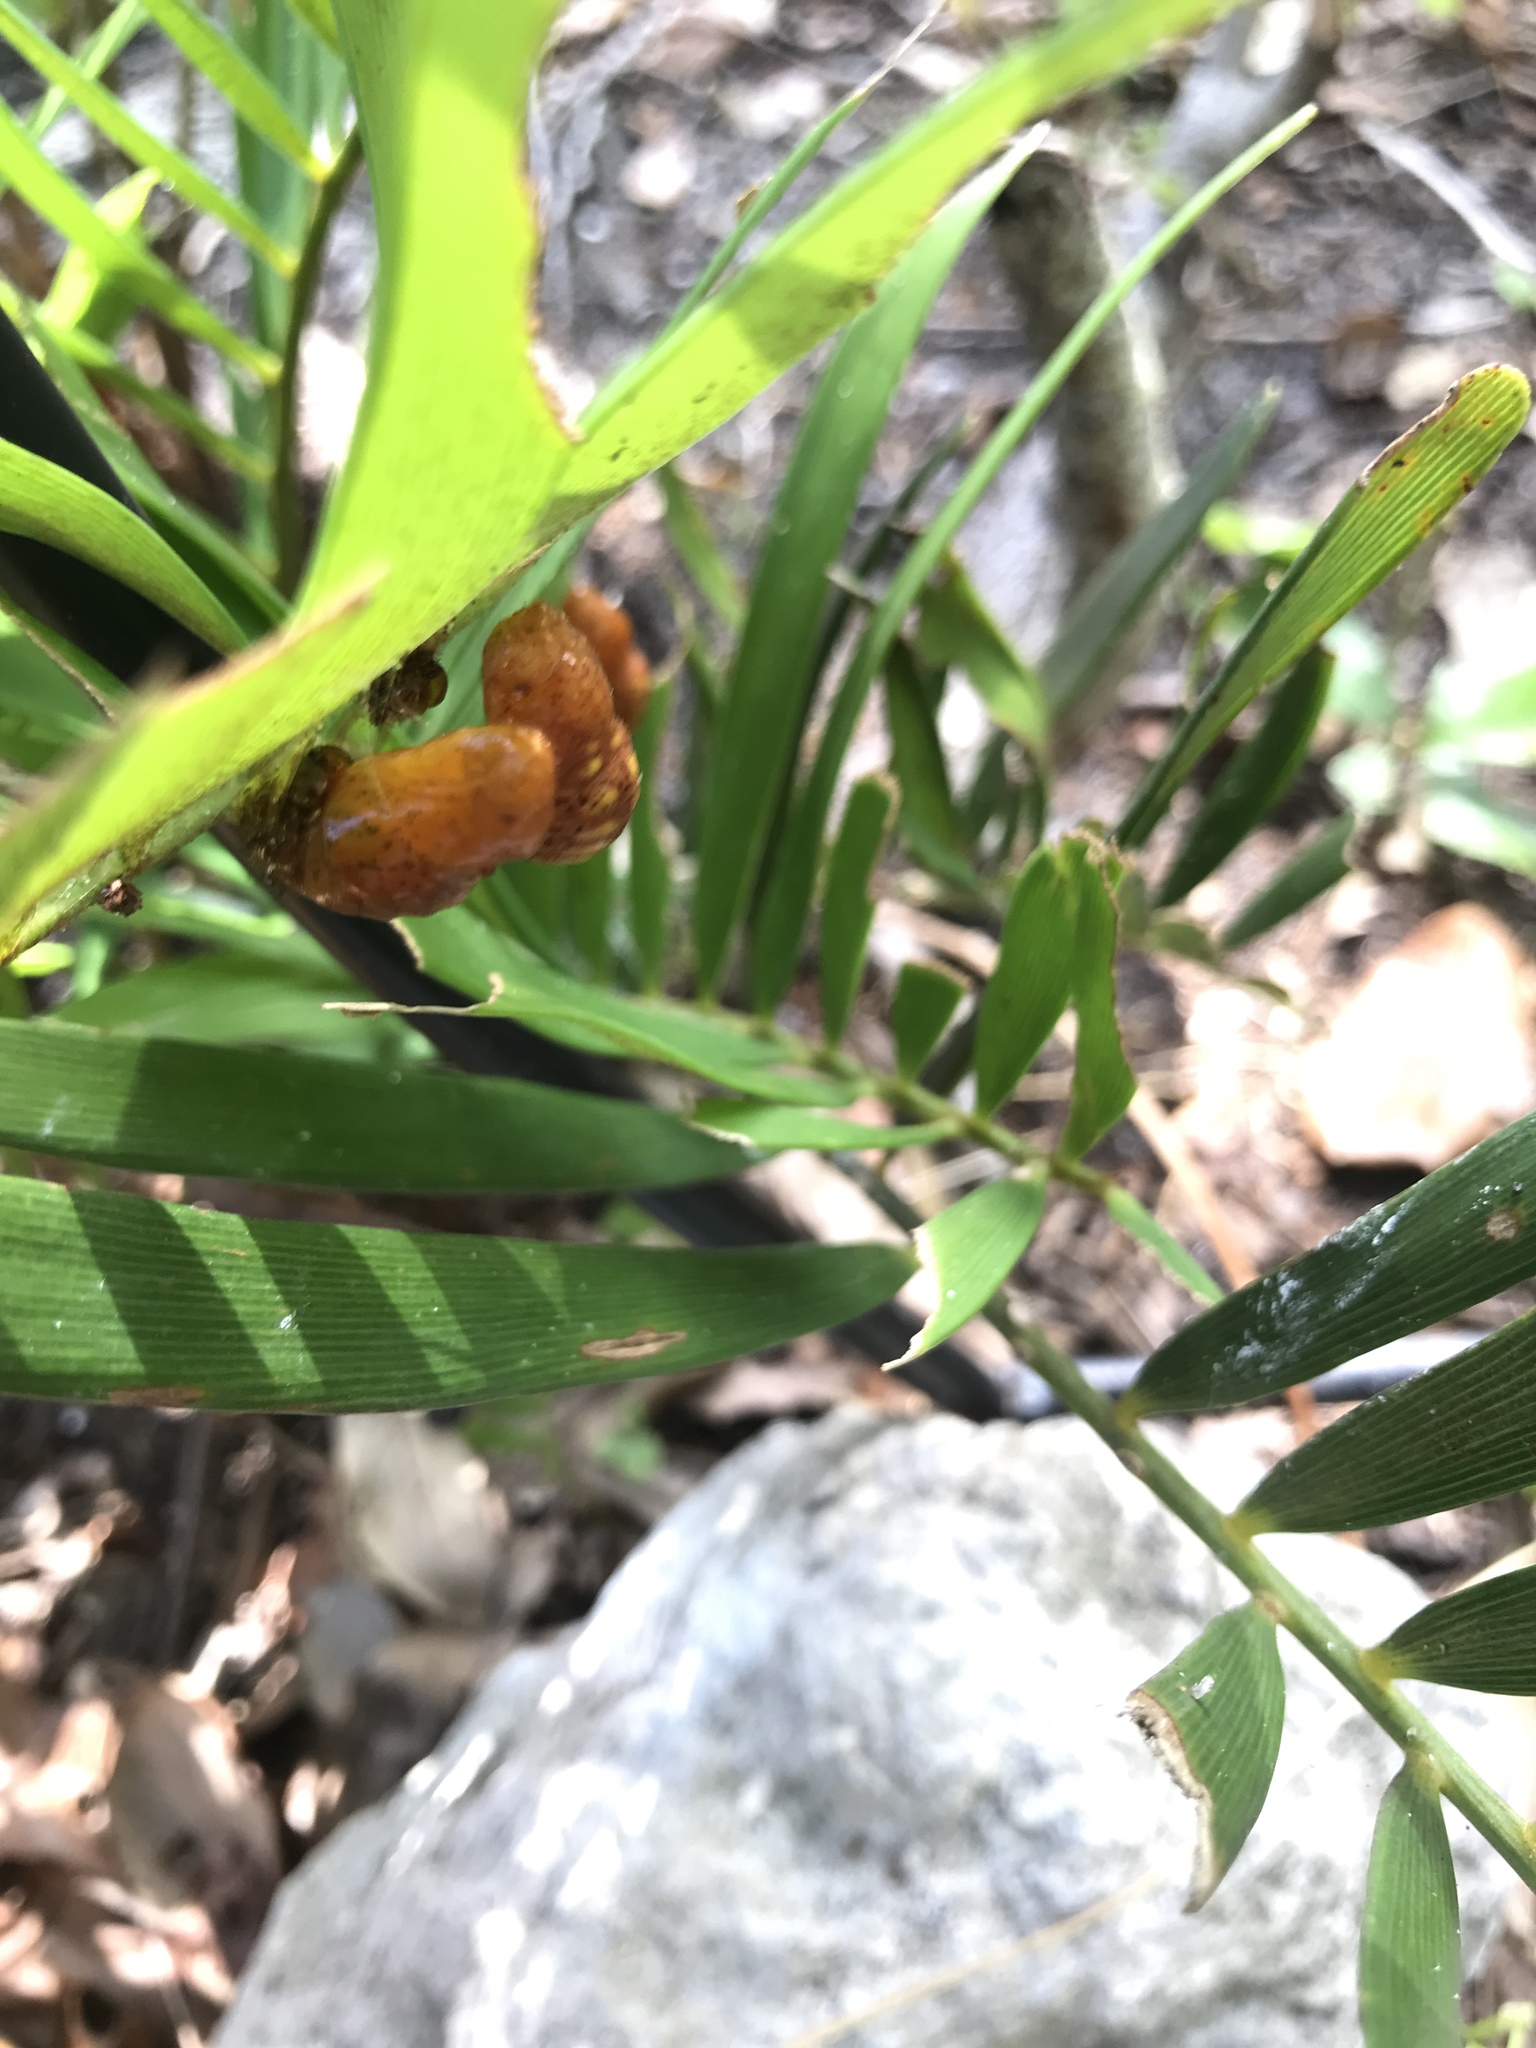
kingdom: Animalia
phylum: Arthropoda
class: Insecta
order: Lepidoptera
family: Lycaenidae
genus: Eumaeus
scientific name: Eumaeus atala
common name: Atala
